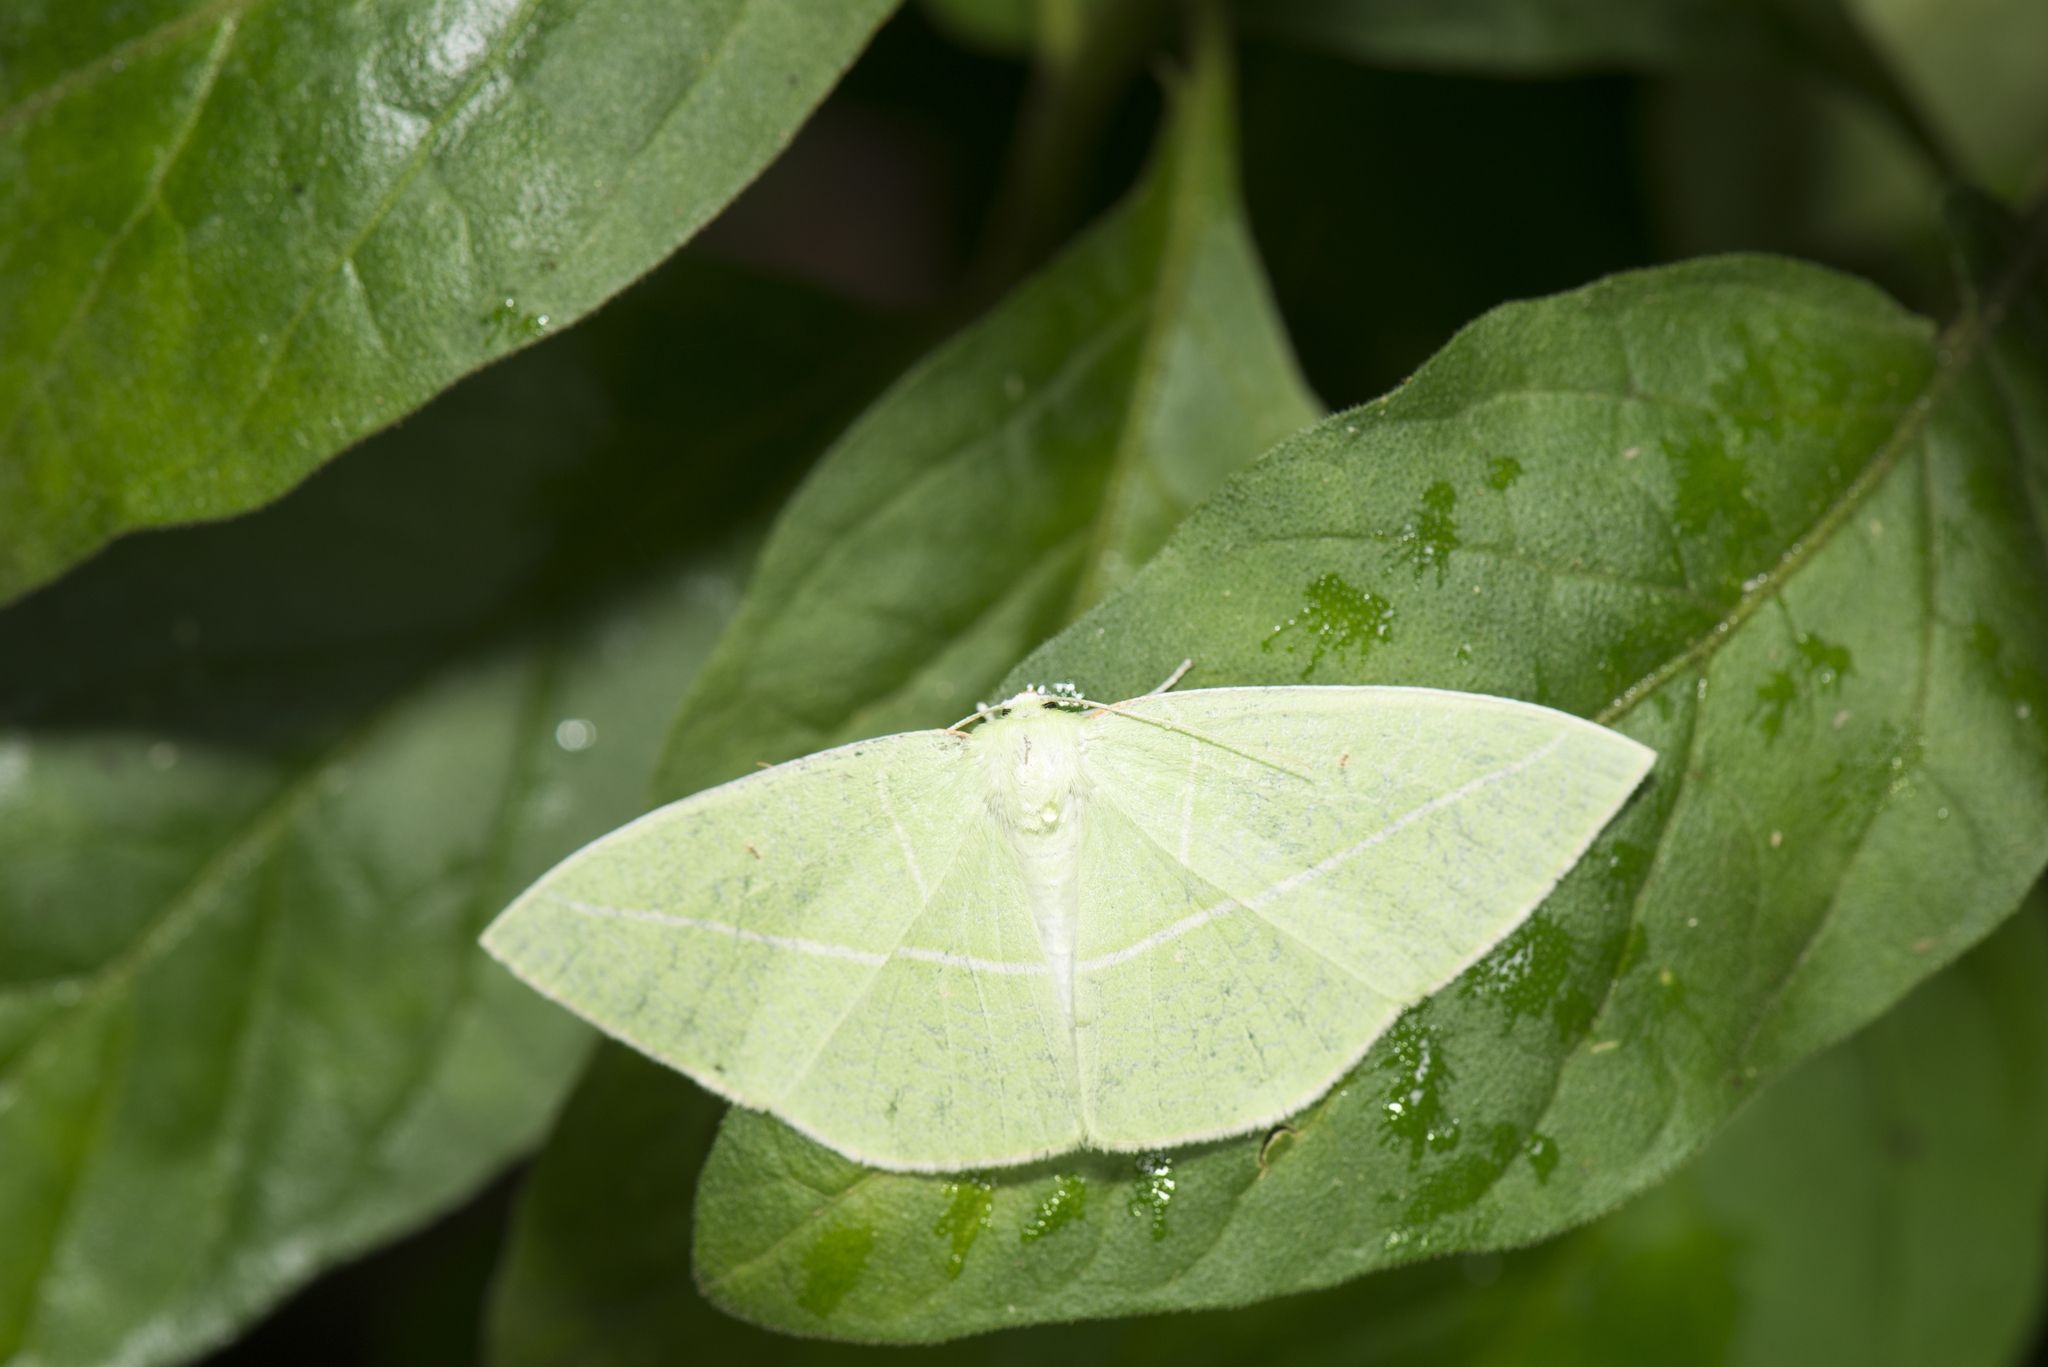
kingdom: Animalia
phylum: Arthropoda
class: Insecta
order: Lepidoptera
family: Geometridae
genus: Tanaoctenia
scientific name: Tanaoctenia haliaria
